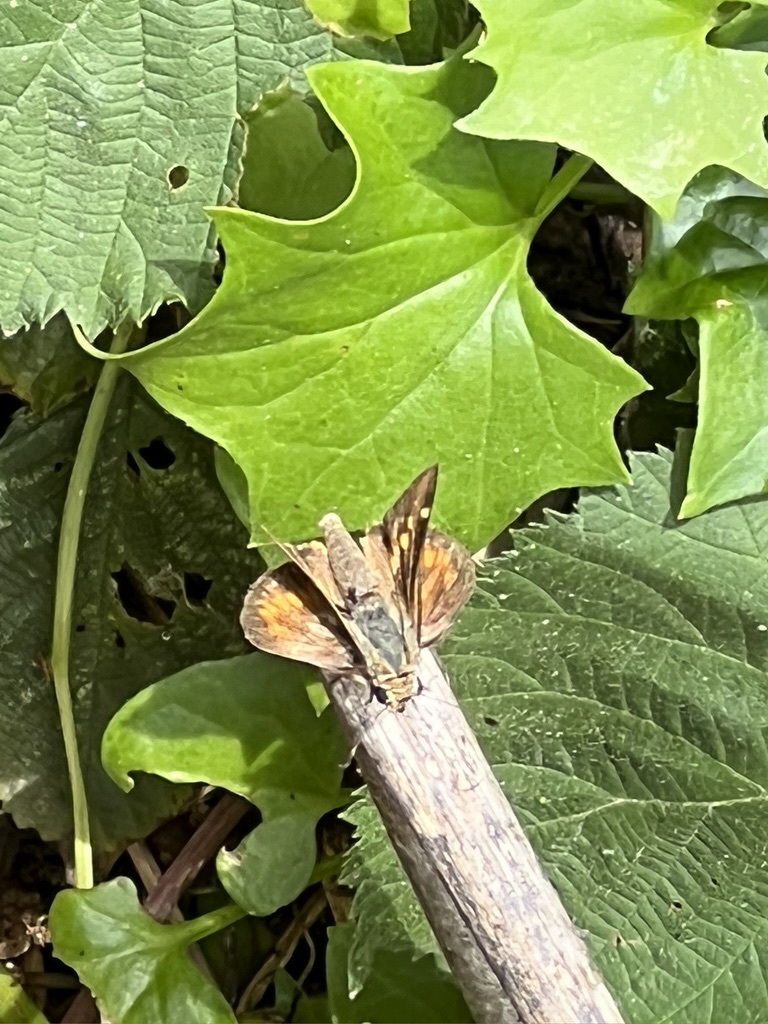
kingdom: Animalia
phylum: Arthropoda
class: Insecta
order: Lepidoptera
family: Hesperiidae
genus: Lon
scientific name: Lon melane
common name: Umber skipper
